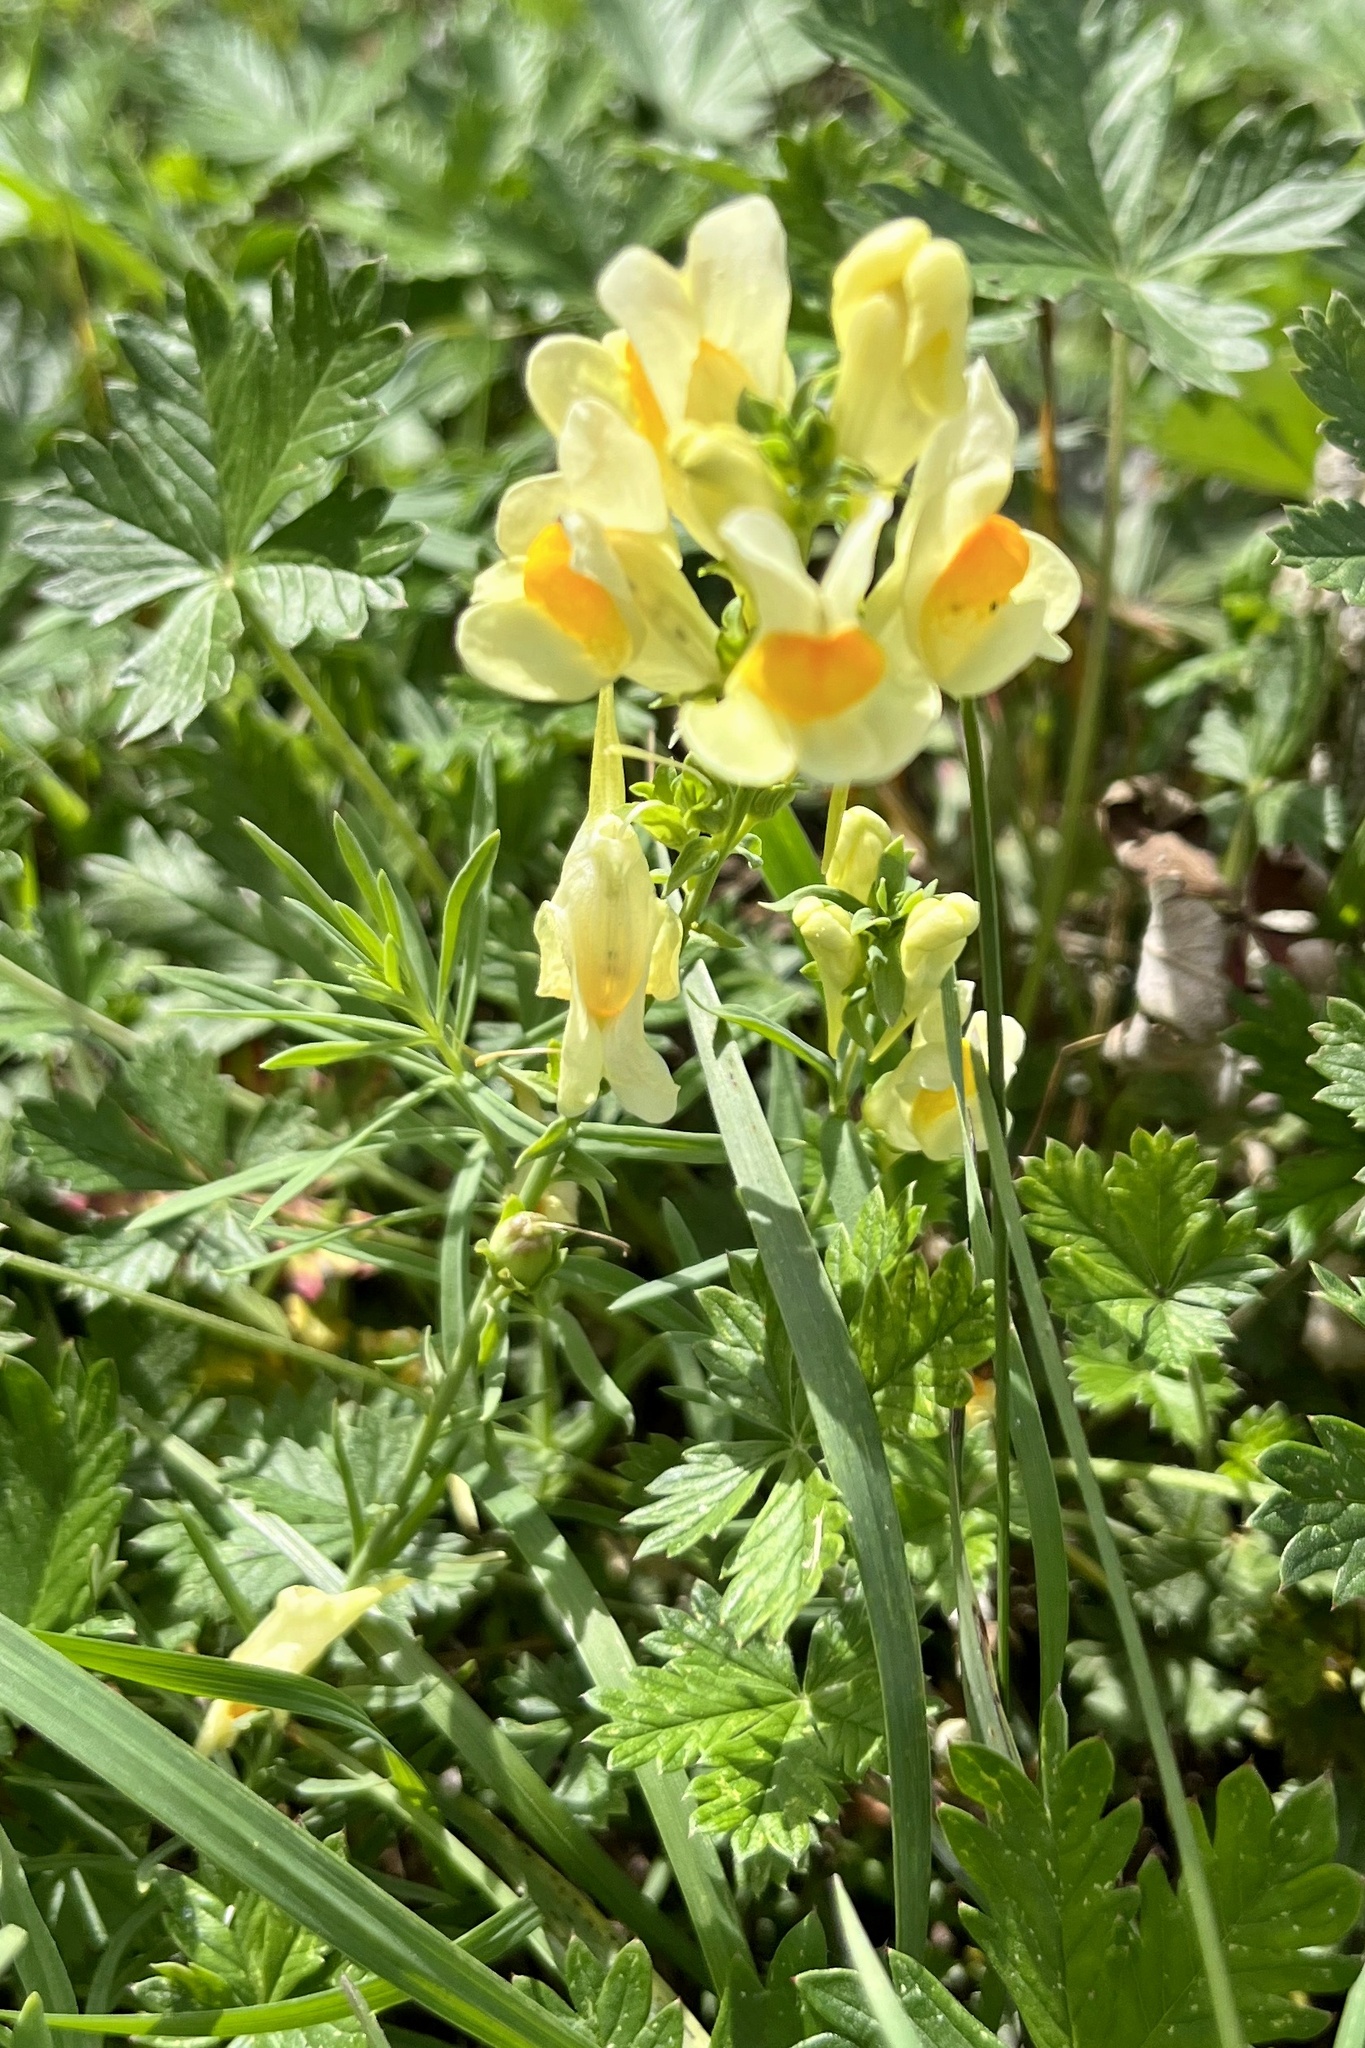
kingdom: Plantae
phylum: Tracheophyta
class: Magnoliopsida
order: Lamiales
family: Plantaginaceae
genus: Linaria
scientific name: Linaria vulgaris
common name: Butter and eggs
